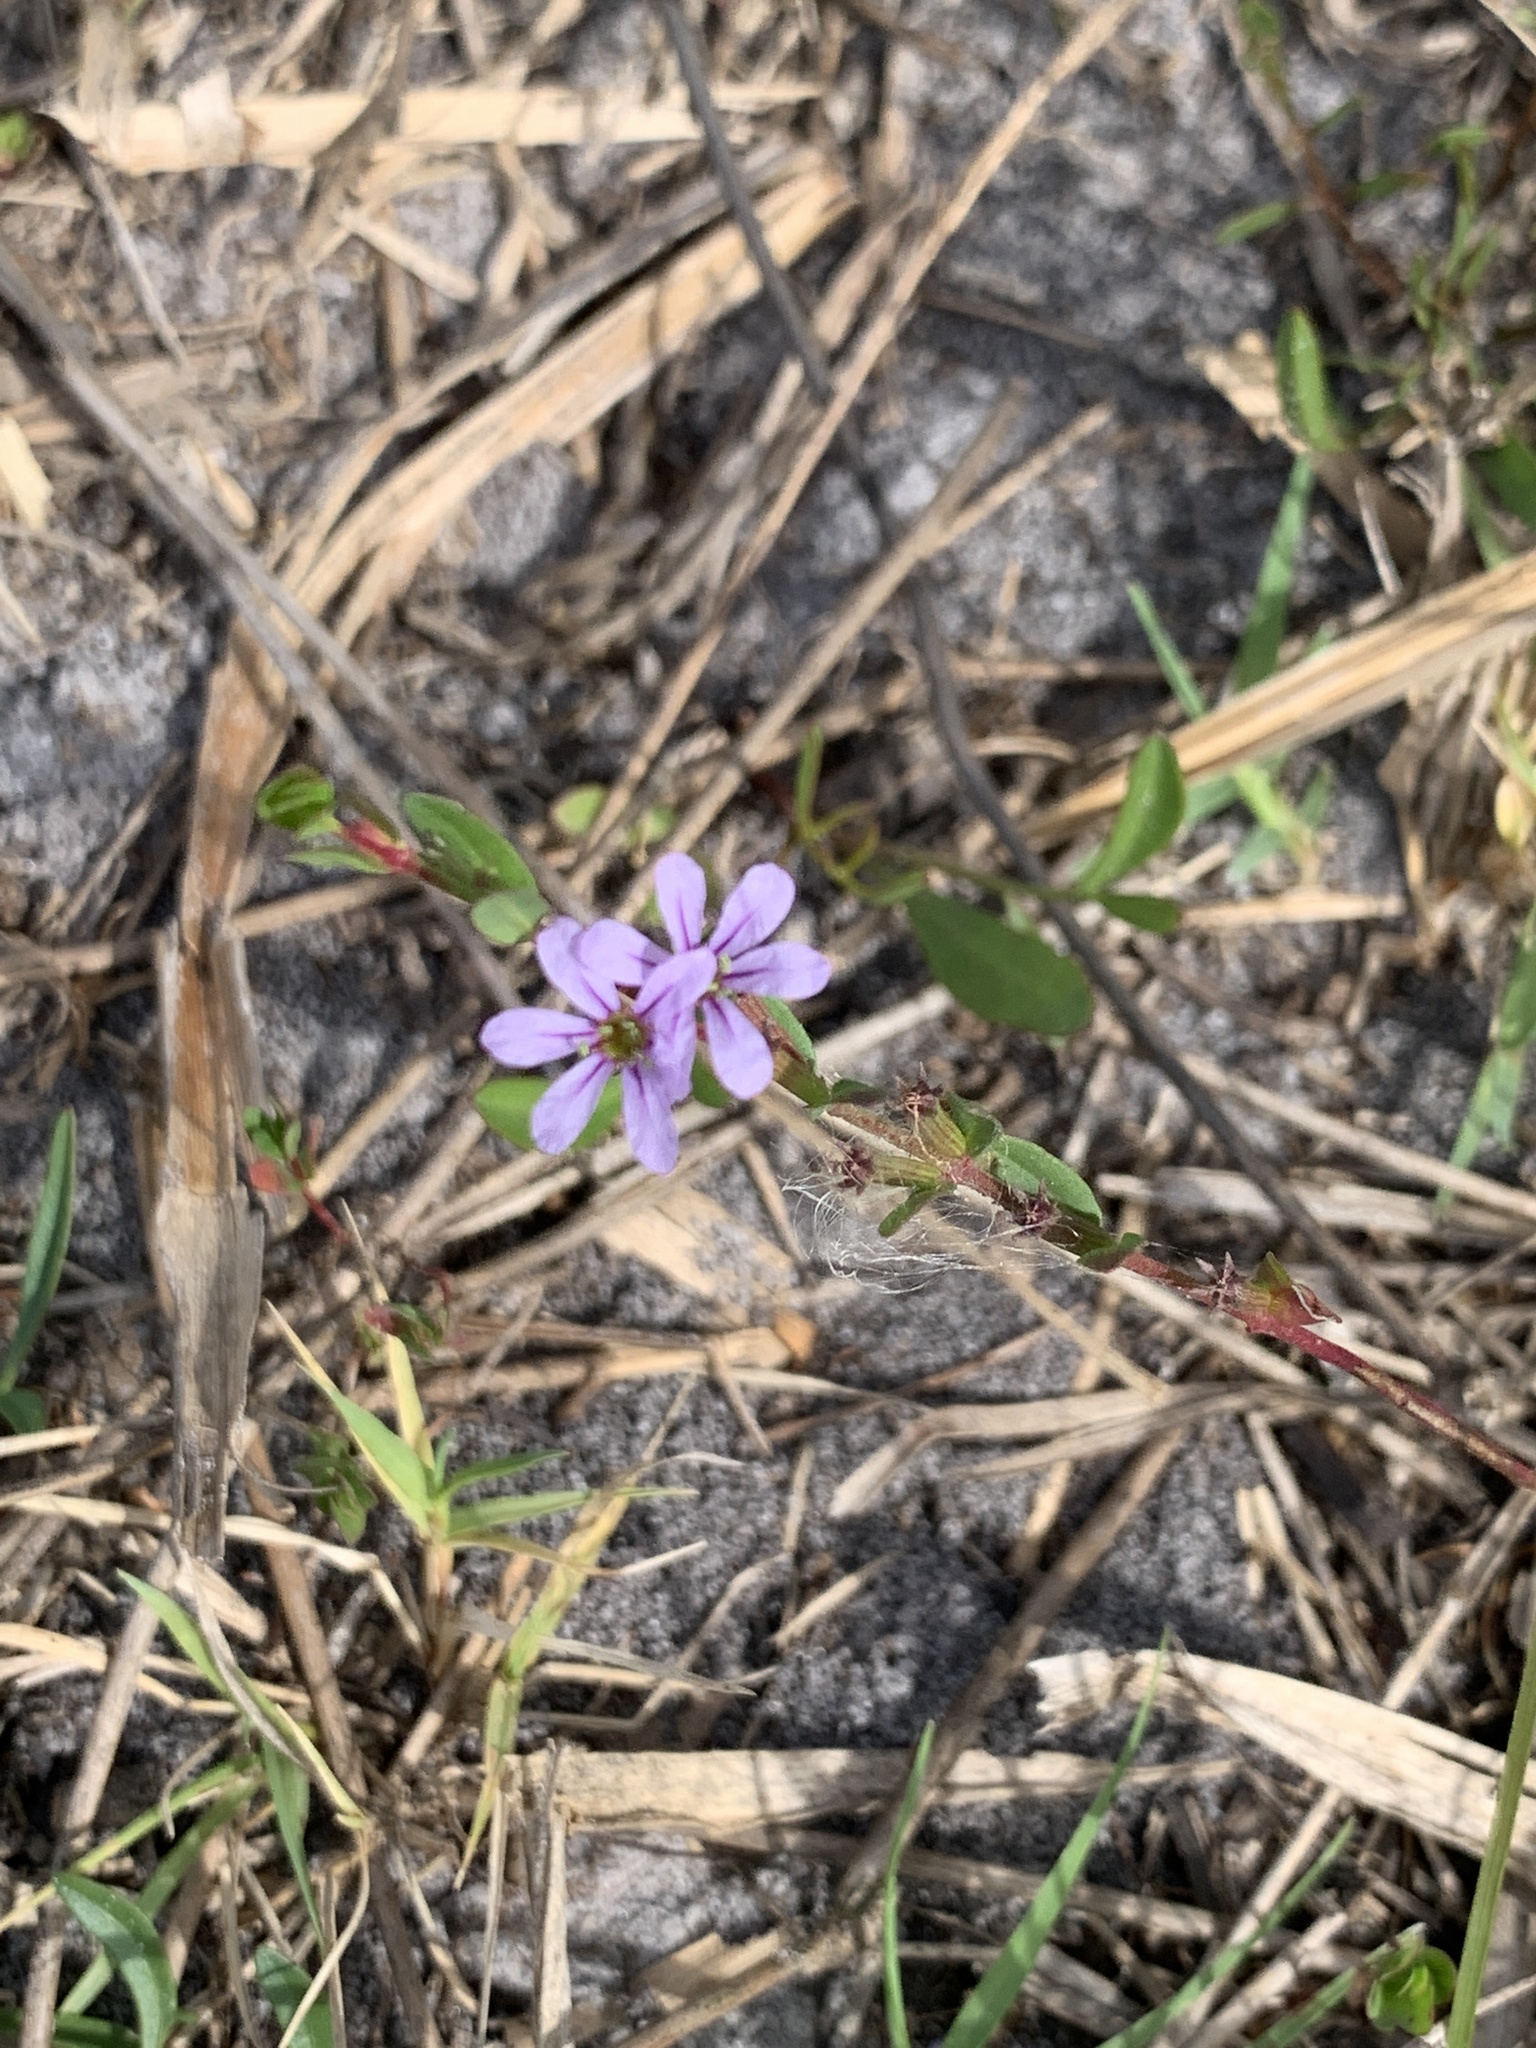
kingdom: Plantae
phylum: Tracheophyta
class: Magnoliopsida
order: Myrtales
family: Lythraceae
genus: Lythrum
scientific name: Lythrum flagellare
